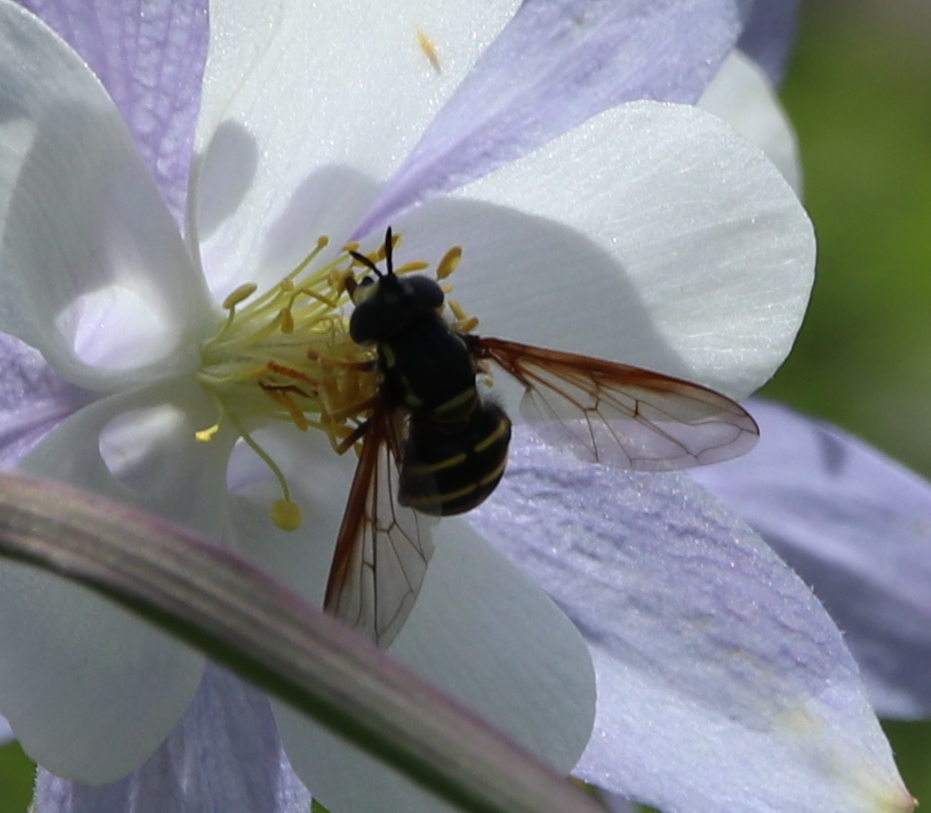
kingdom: Animalia
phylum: Arthropoda
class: Insecta
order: Diptera
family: Syrphidae
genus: Chrysotoxum
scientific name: Chrysotoxum
